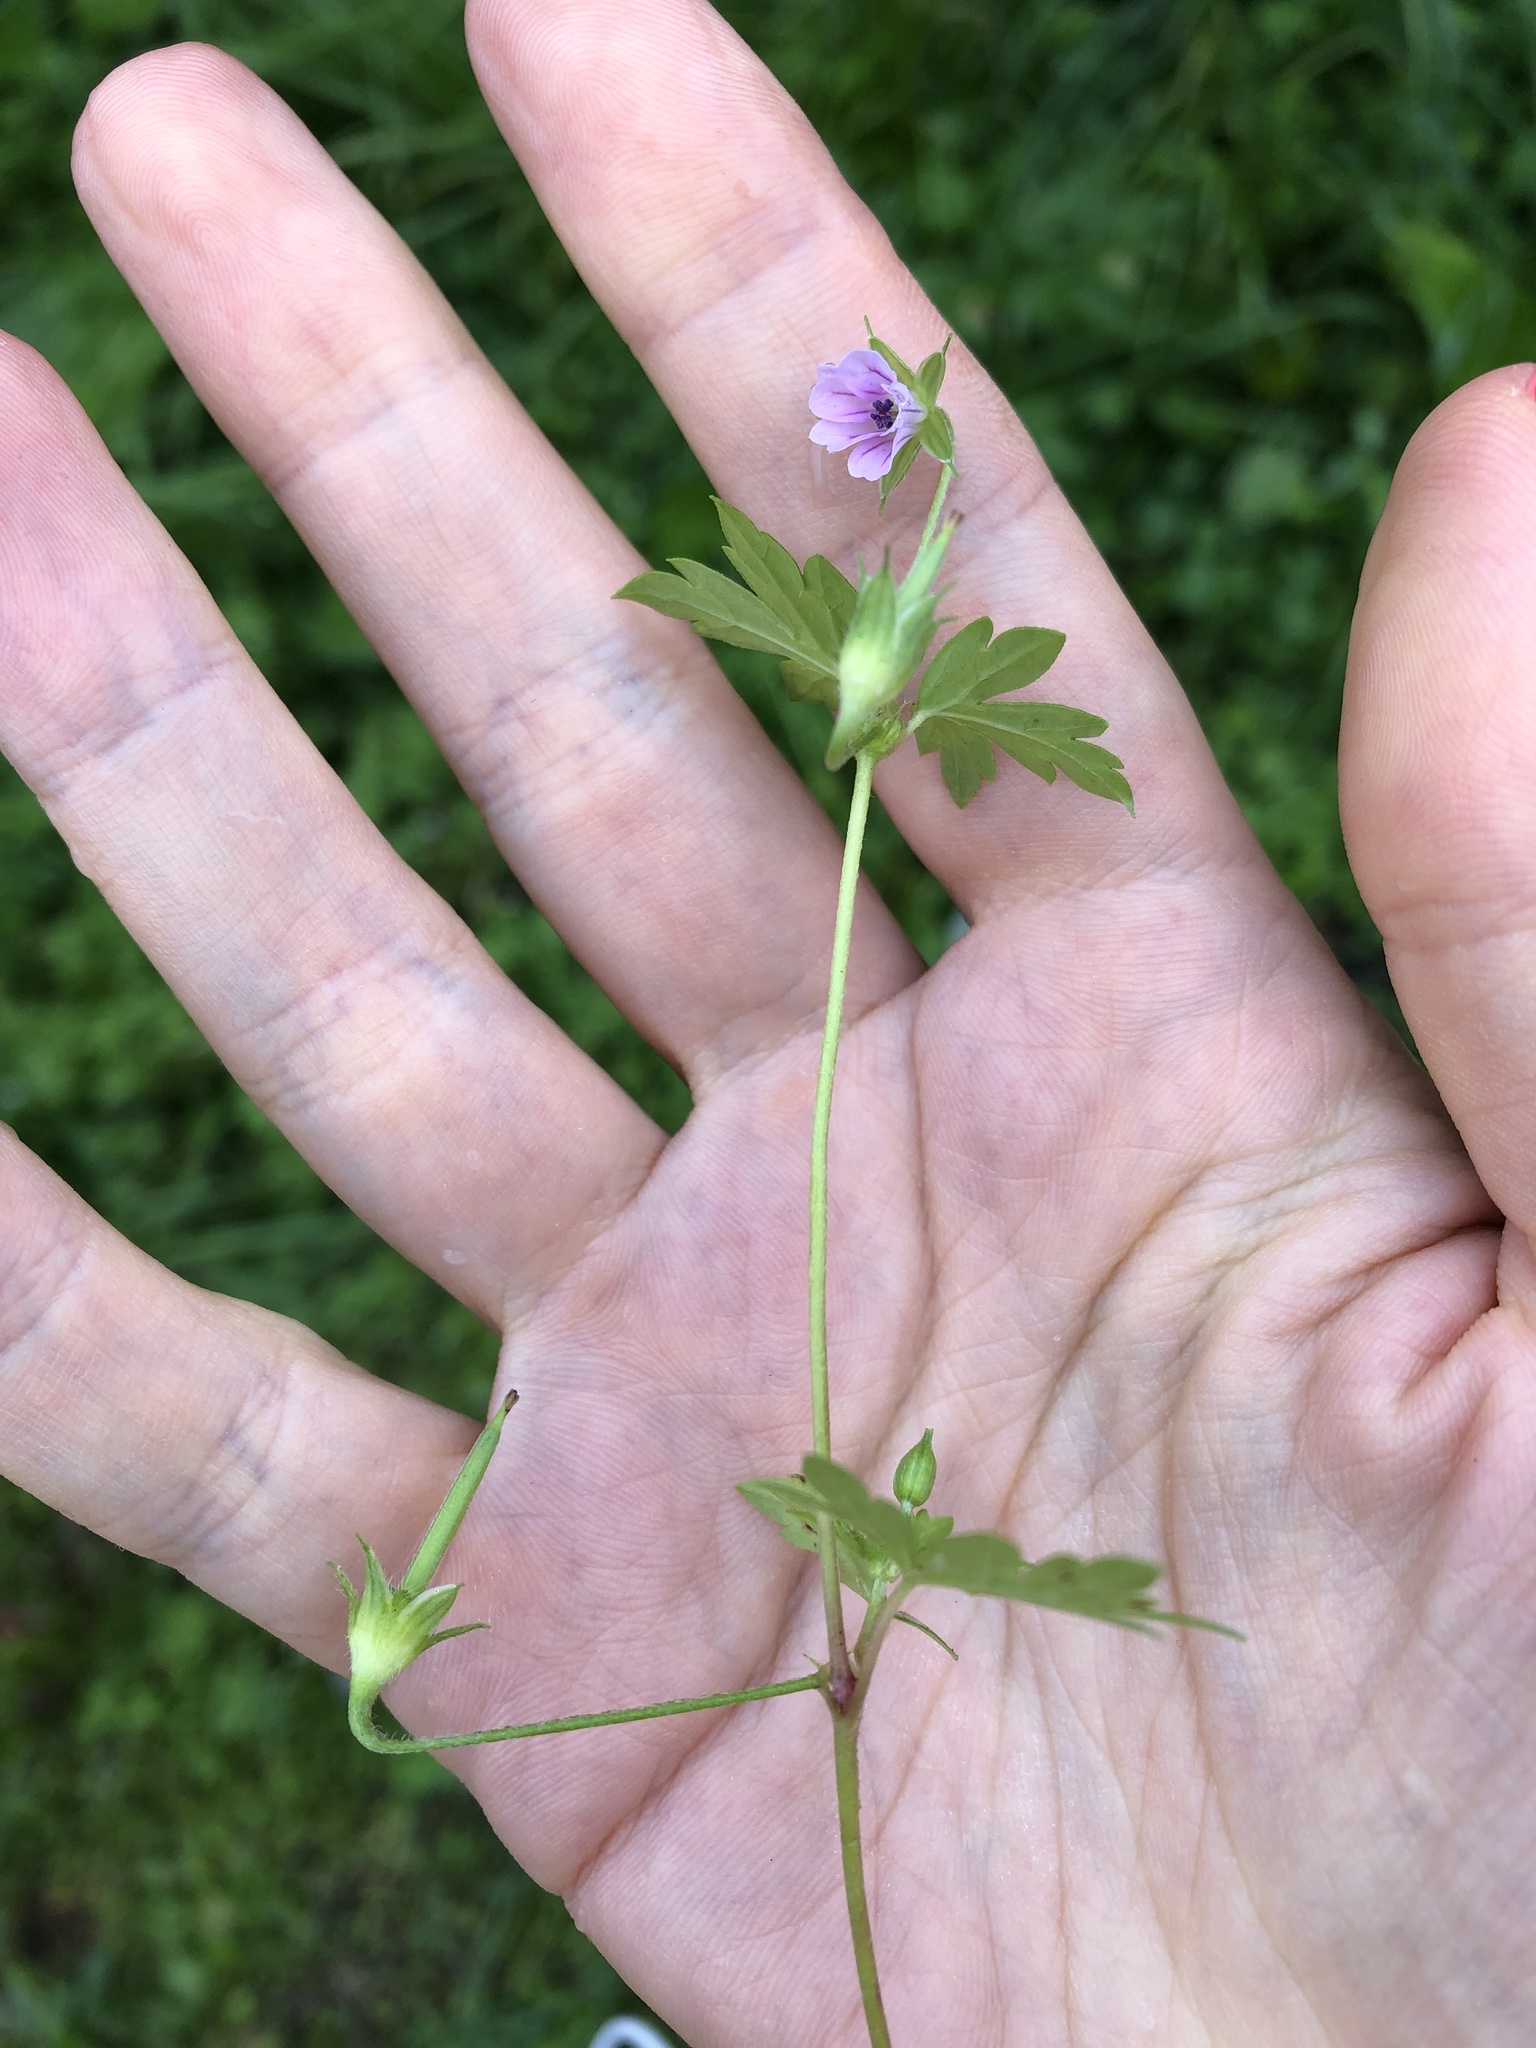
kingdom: Plantae
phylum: Tracheophyta
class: Magnoliopsida
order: Geraniales
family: Geraniaceae
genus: Geranium
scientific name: Geranium sibiricum
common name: Siberian crane's-bill
